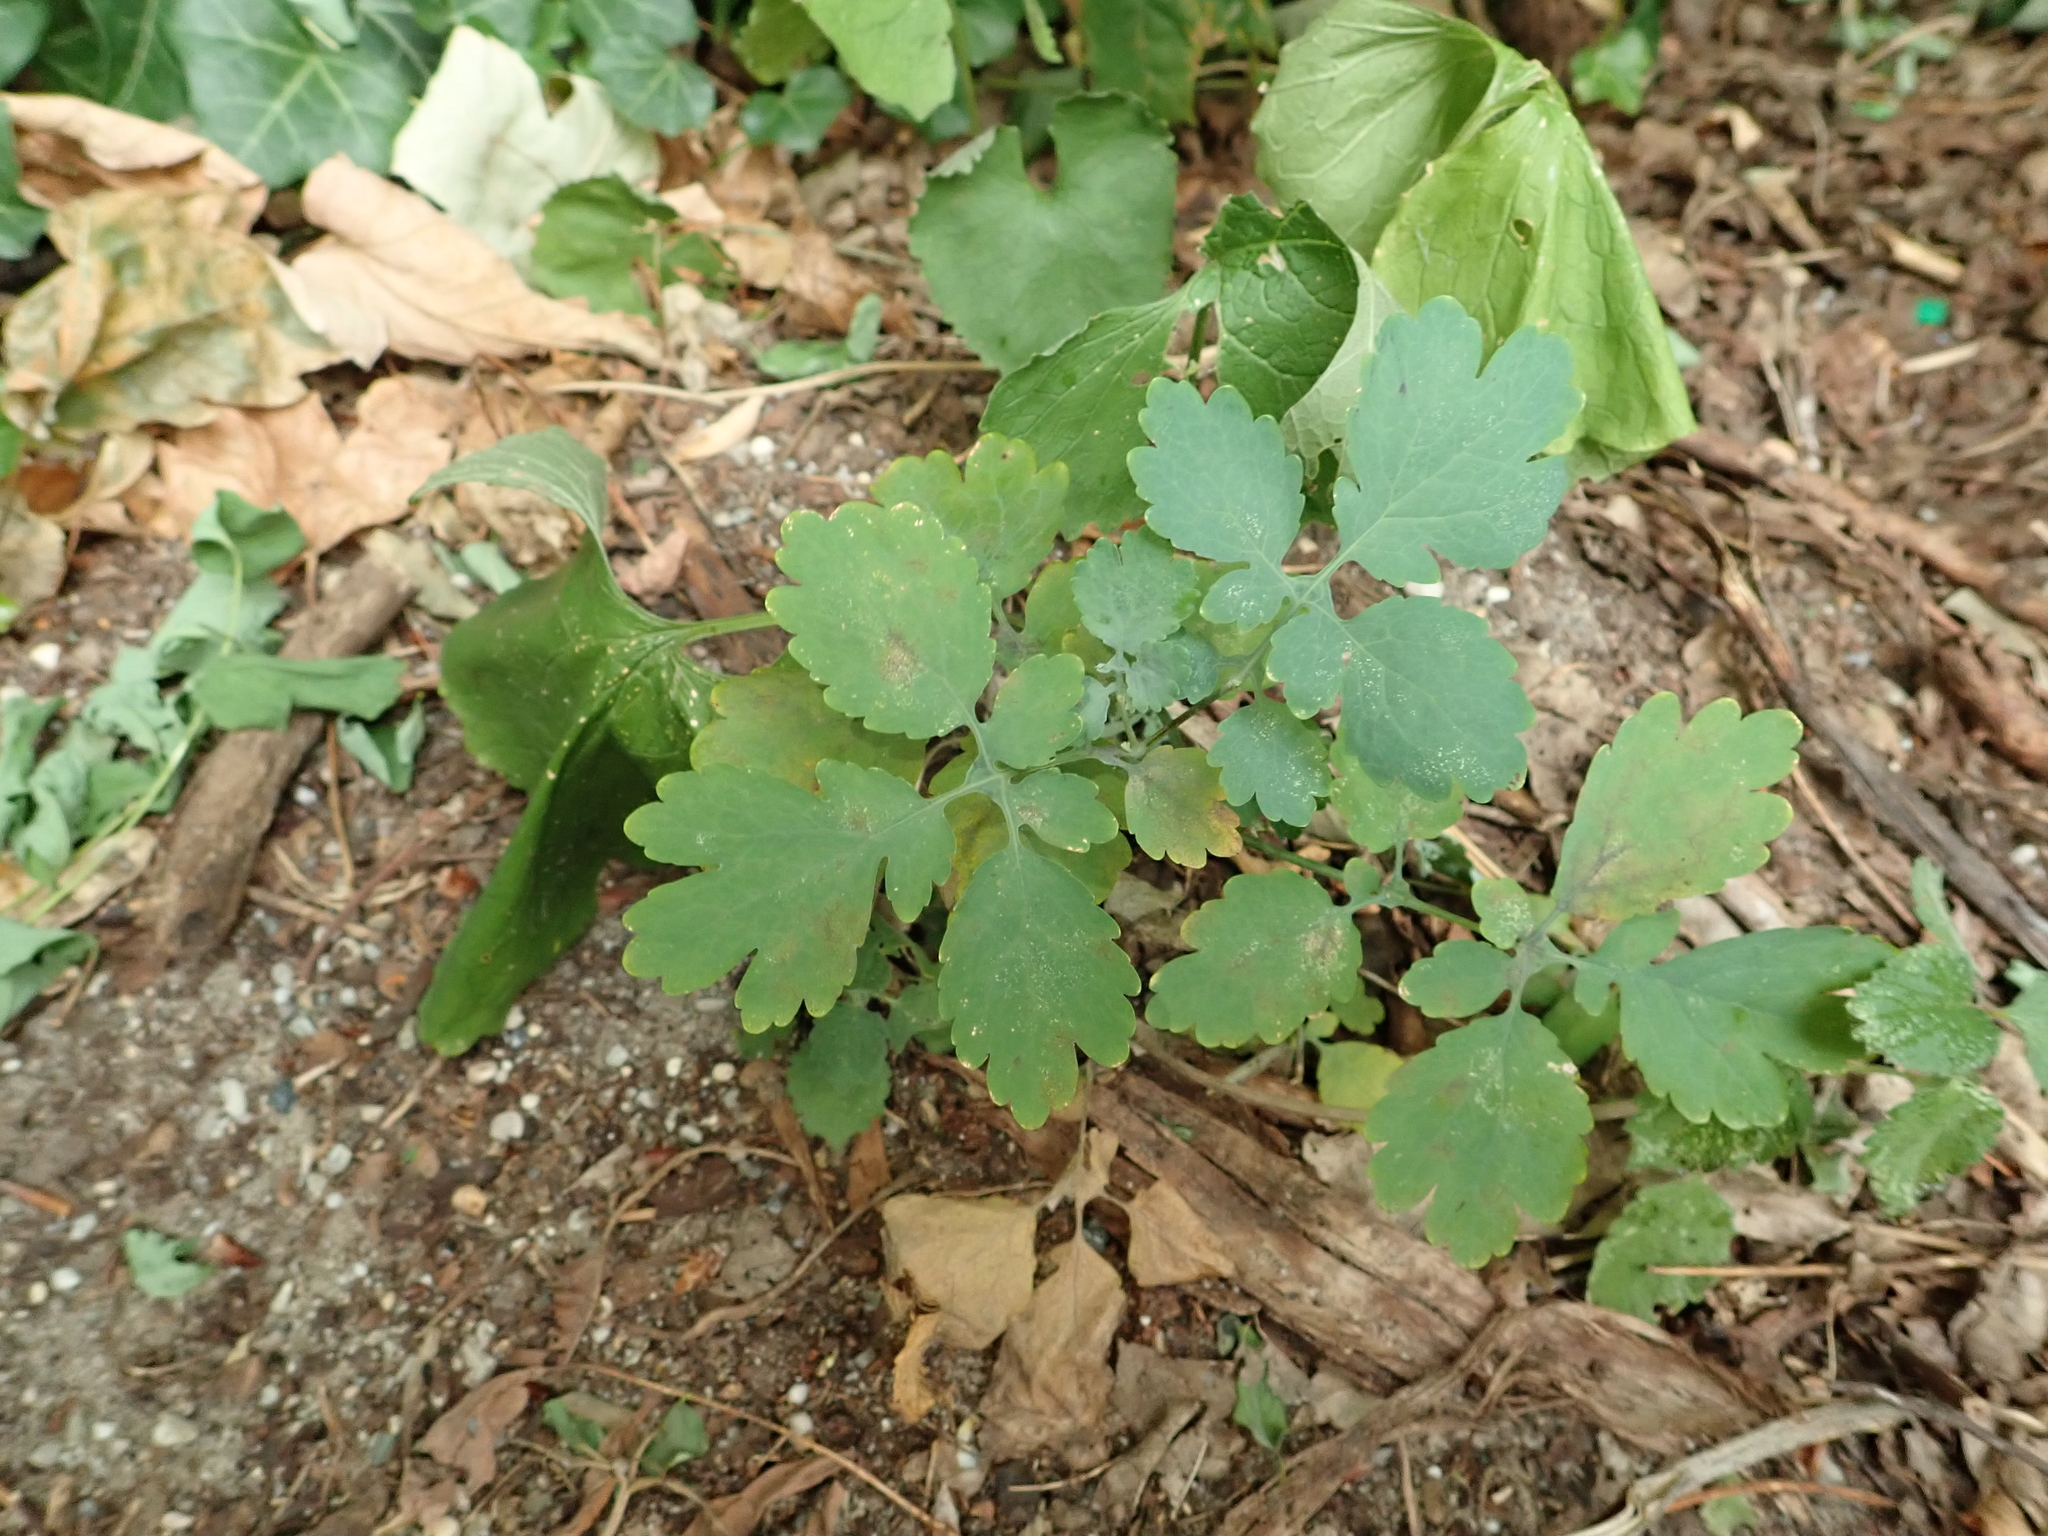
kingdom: Plantae
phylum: Tracheophyta
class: Magnoliopsida
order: Ranunculales
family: Papaveraceae
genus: Chelidonium
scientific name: Chelidonium majus
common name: Greater celandine
